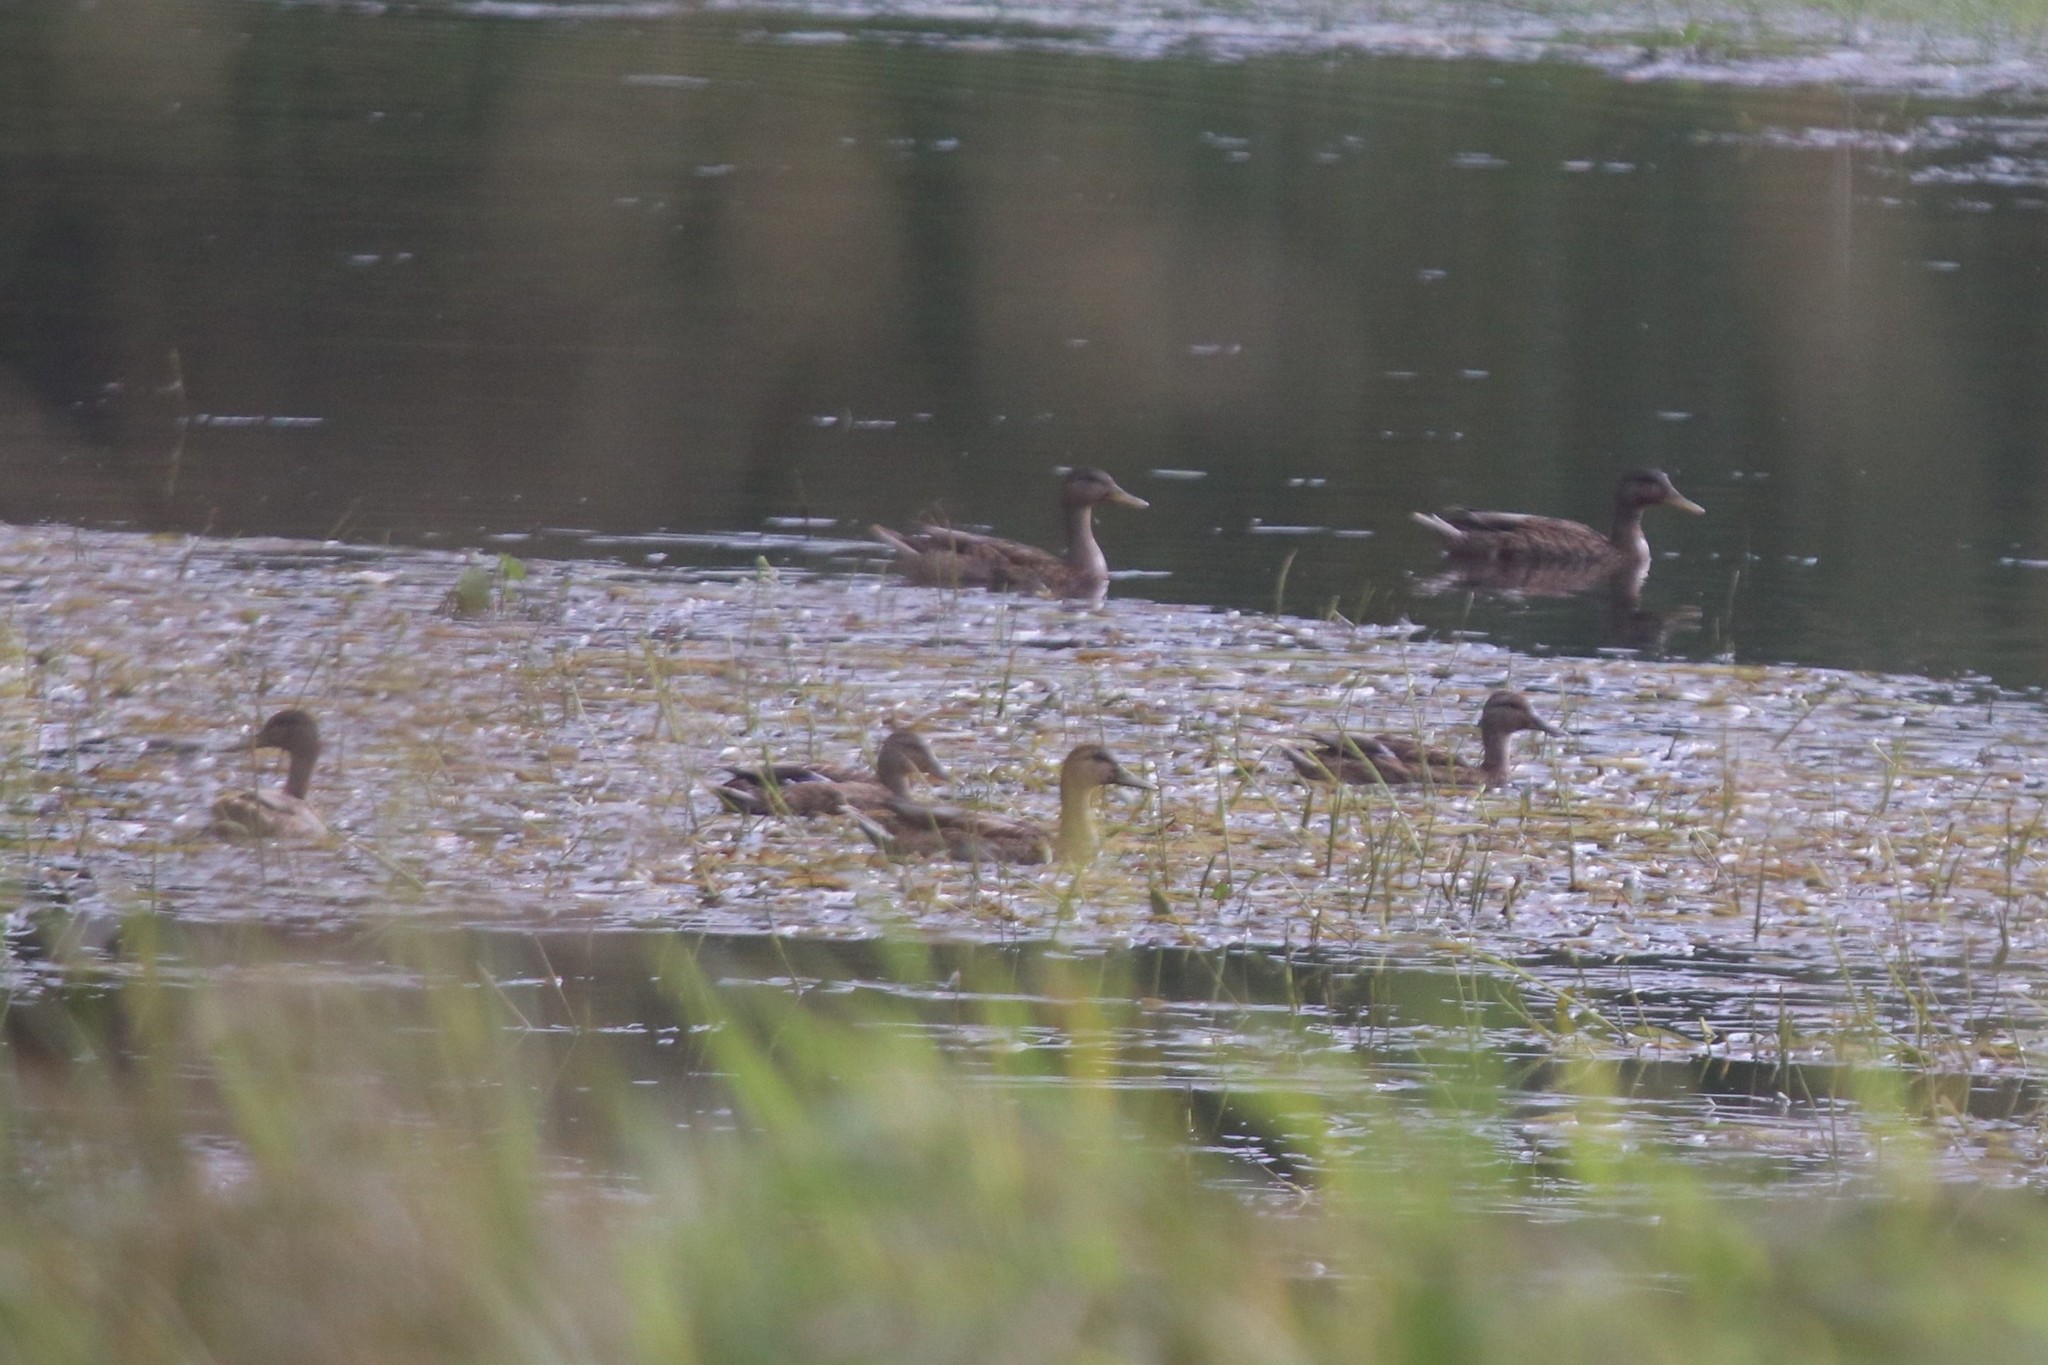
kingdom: Animalia
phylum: Chordata
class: Aves
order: Anseriformes
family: Anatidae
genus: Anas
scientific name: Anas platyrhynchos
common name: Mallard
